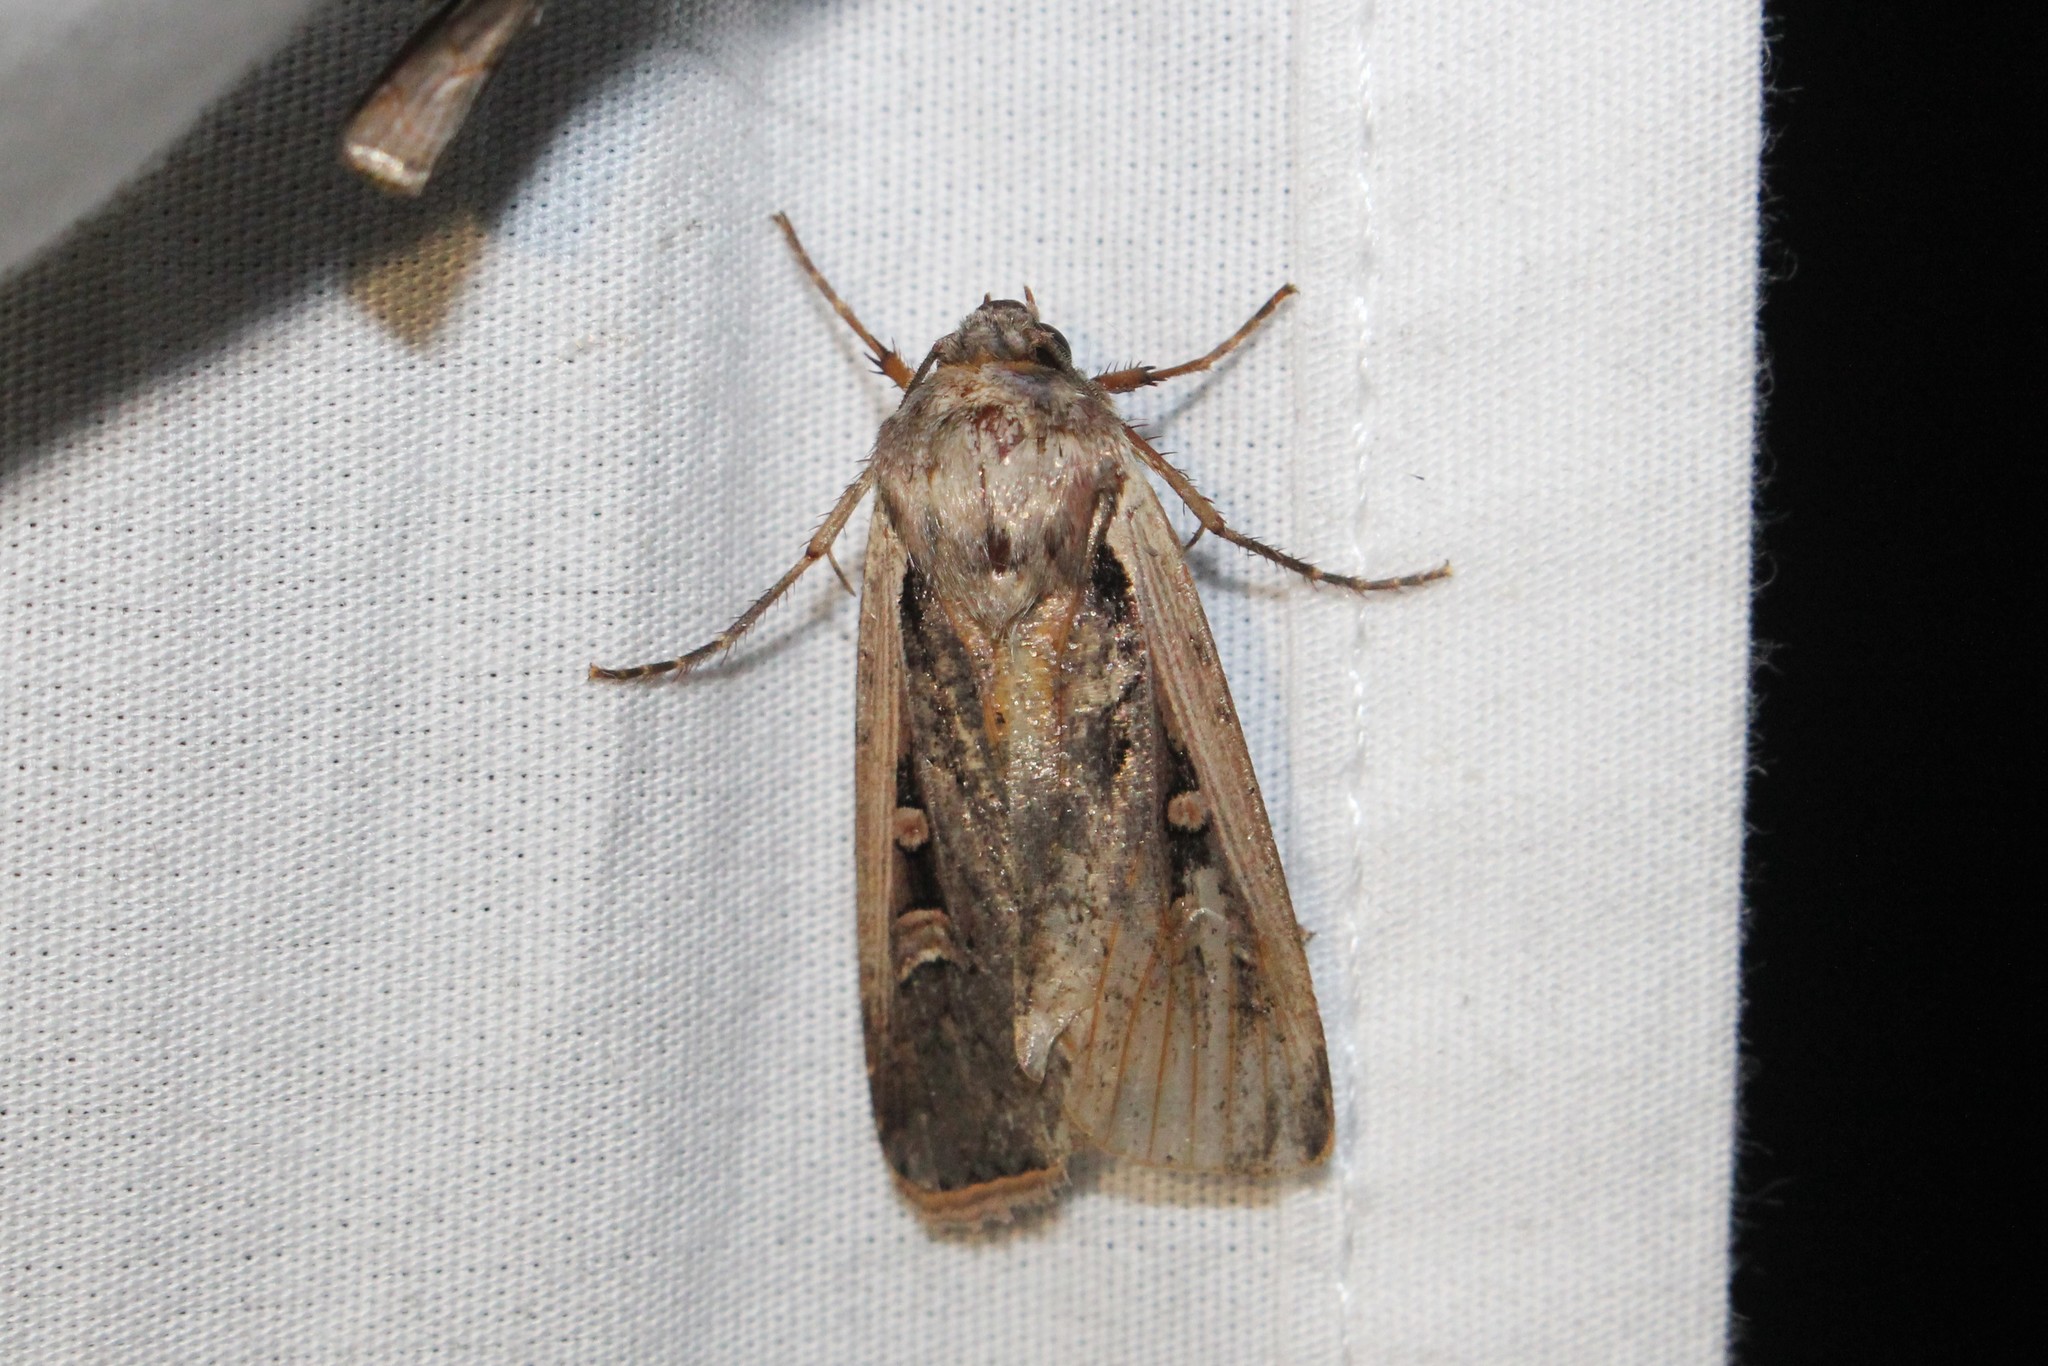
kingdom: Animalia
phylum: Arthropoda
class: Insecta
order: Lepidoptera
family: Noctuidae
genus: Striacosta
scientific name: Striacosta albicosta
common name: Western bean cutworm moth
